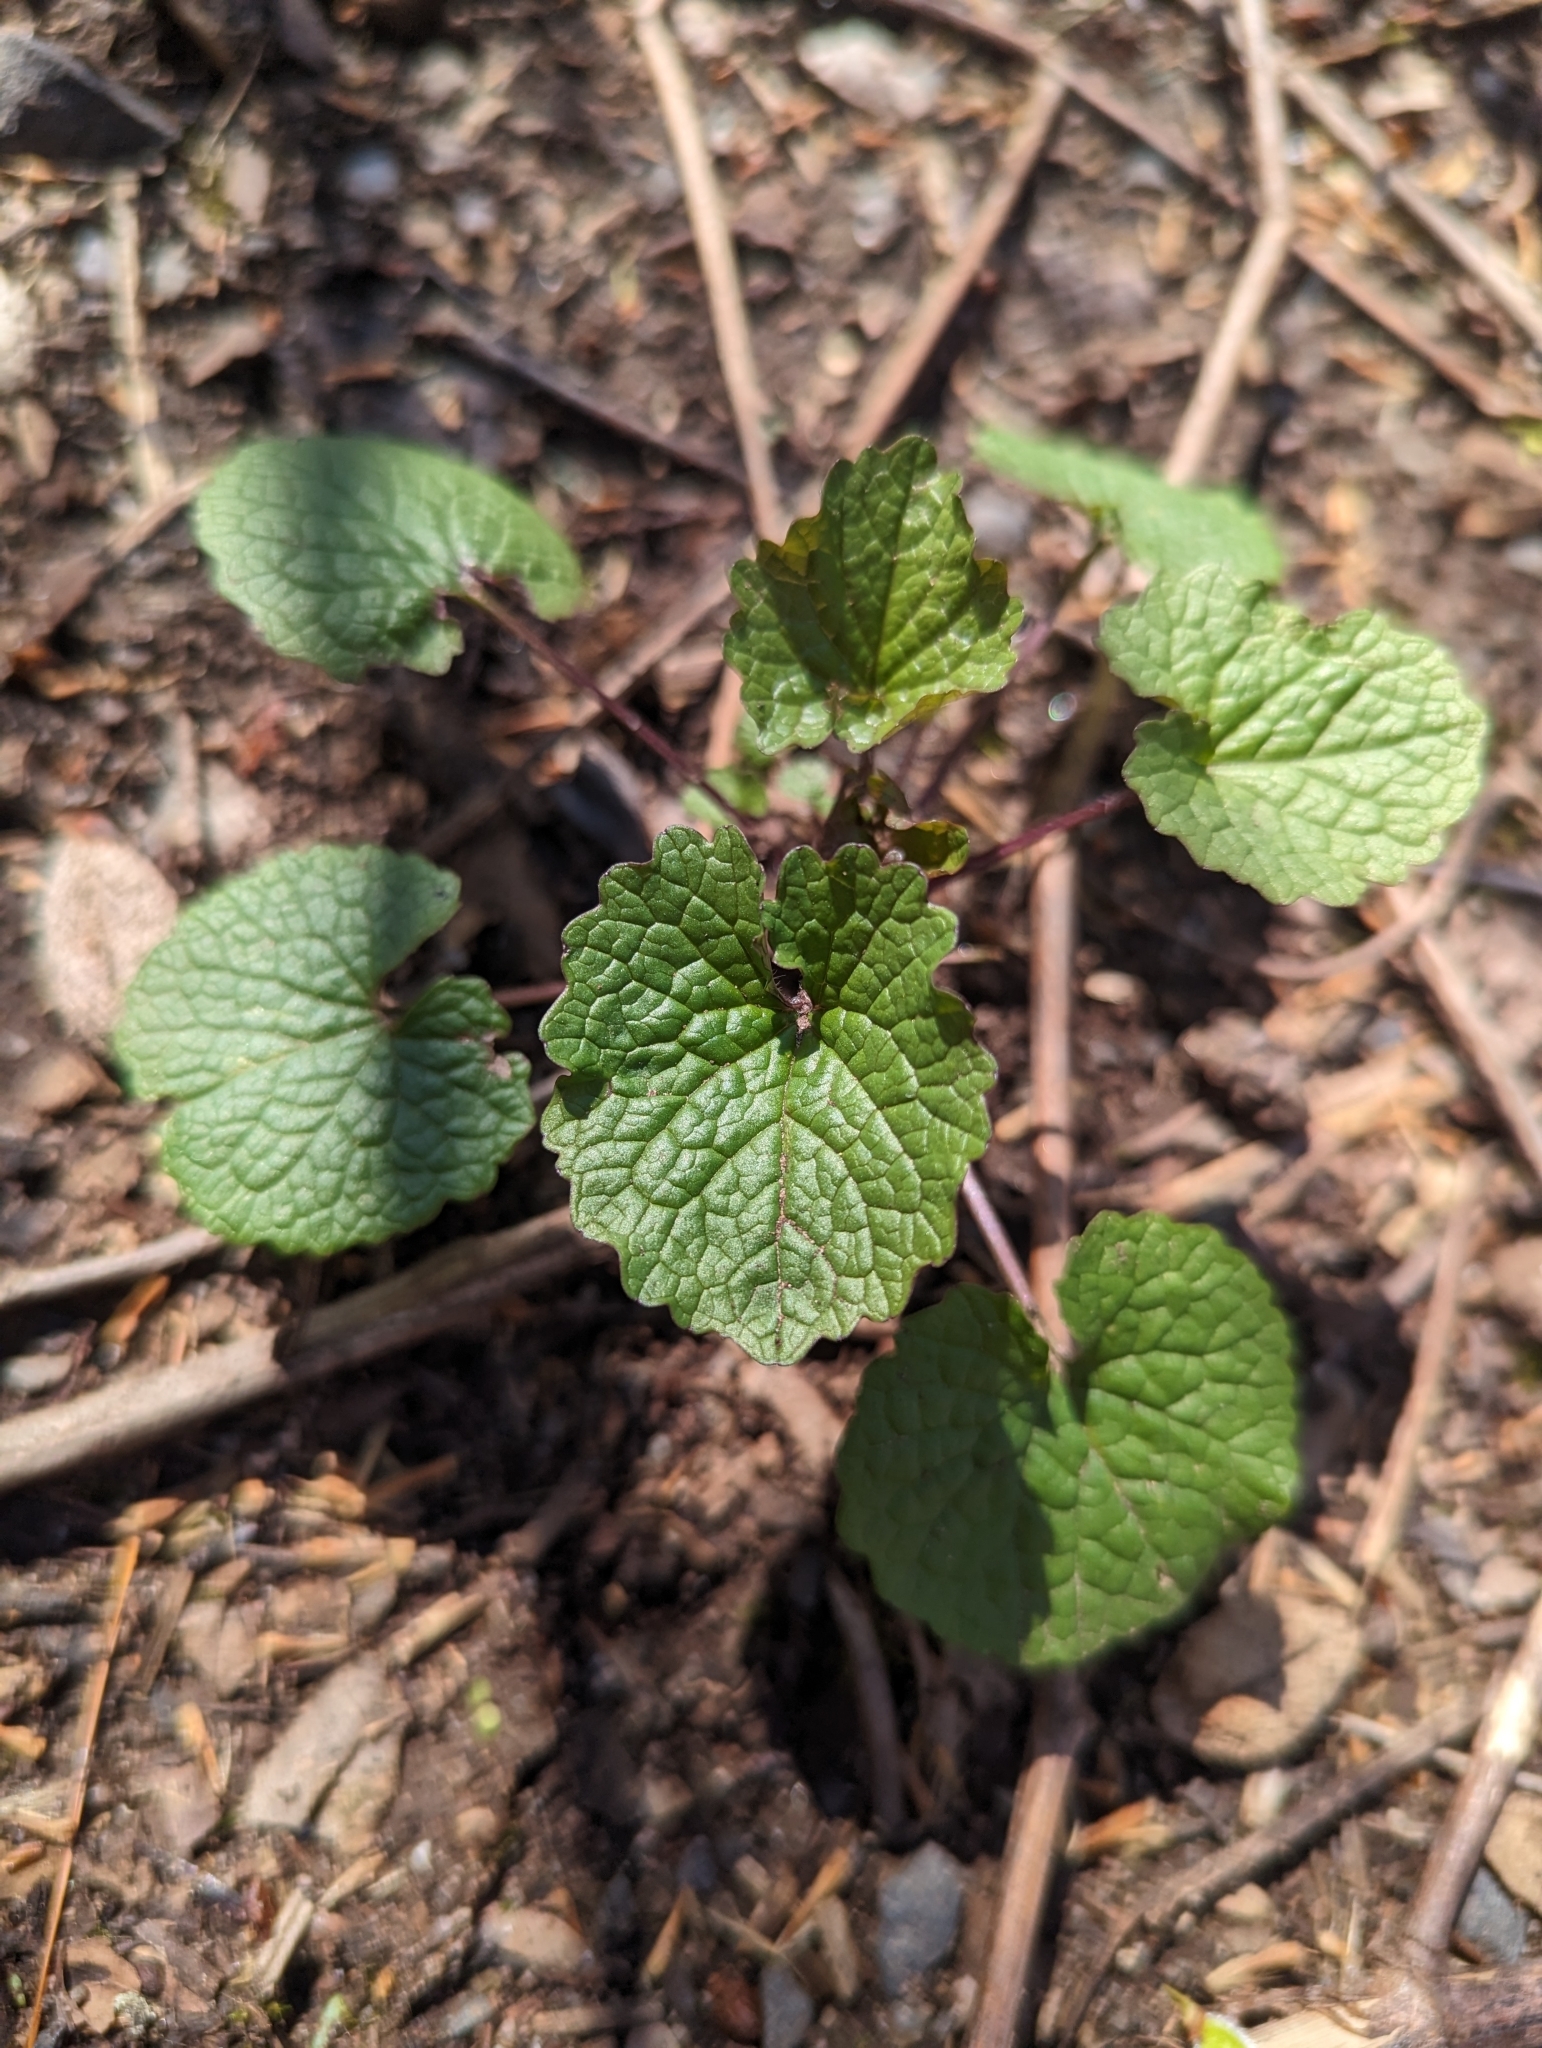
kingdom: Plantae
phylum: Tracheophyta
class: Magnoliopsida
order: Brassicales
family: Brassicaceae
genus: Alliaria
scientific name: Alliaria petiolata
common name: Garlic mustard
